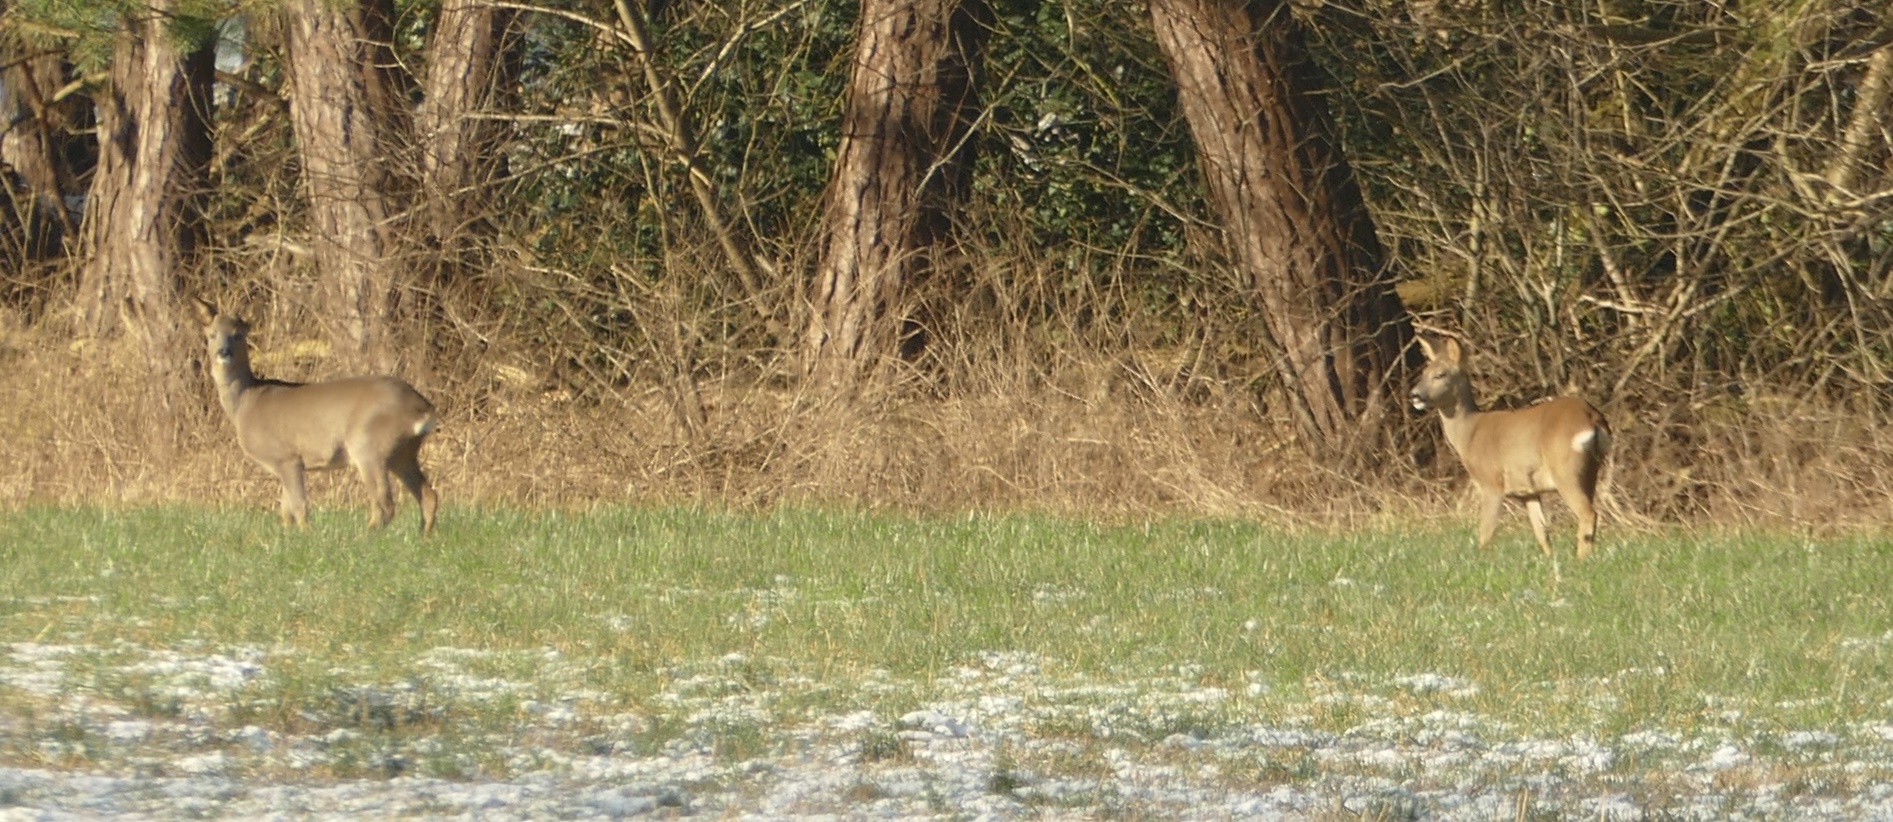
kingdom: Animalia
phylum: Chordata
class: Mammalia
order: Artiodactyla
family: Cervidae
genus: Capreolus
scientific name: Capreolus capreolus
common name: Western roe deer
